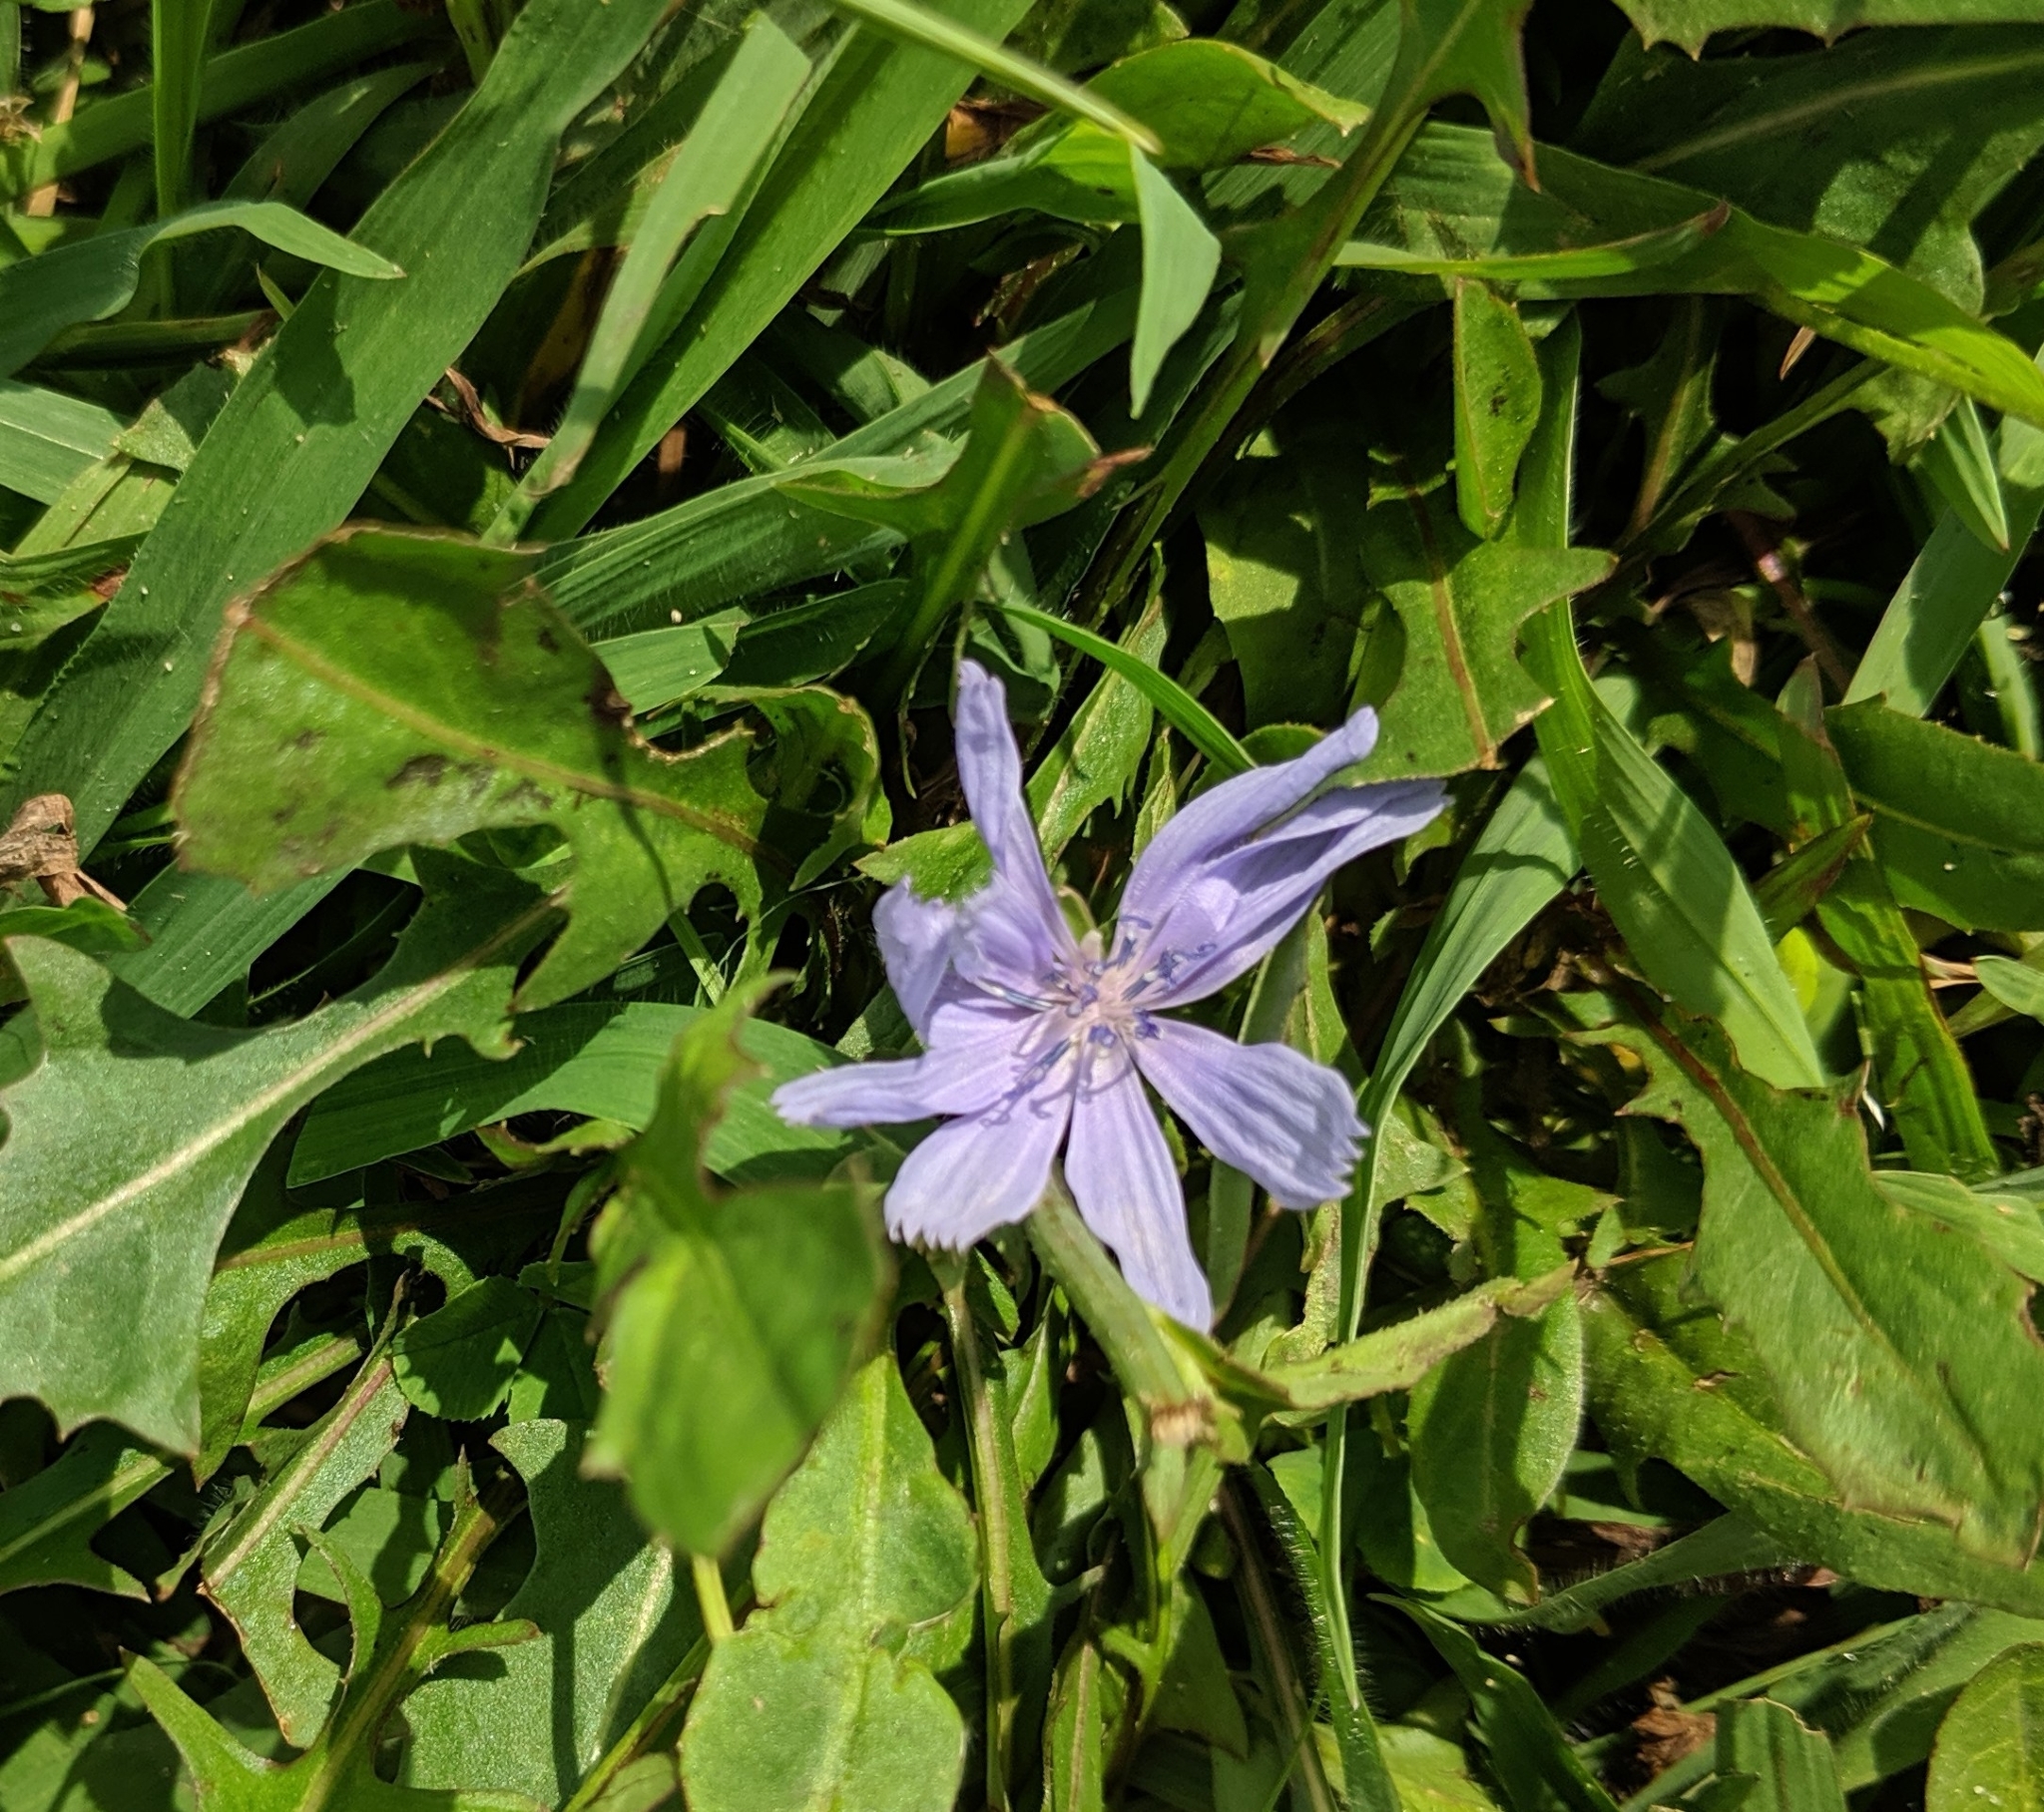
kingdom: Plantae
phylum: Tracheophyta
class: Magnoliopsida
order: Asterales
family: Asteraceae
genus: Cichorium
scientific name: Cichorium intybus
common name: Chicory
